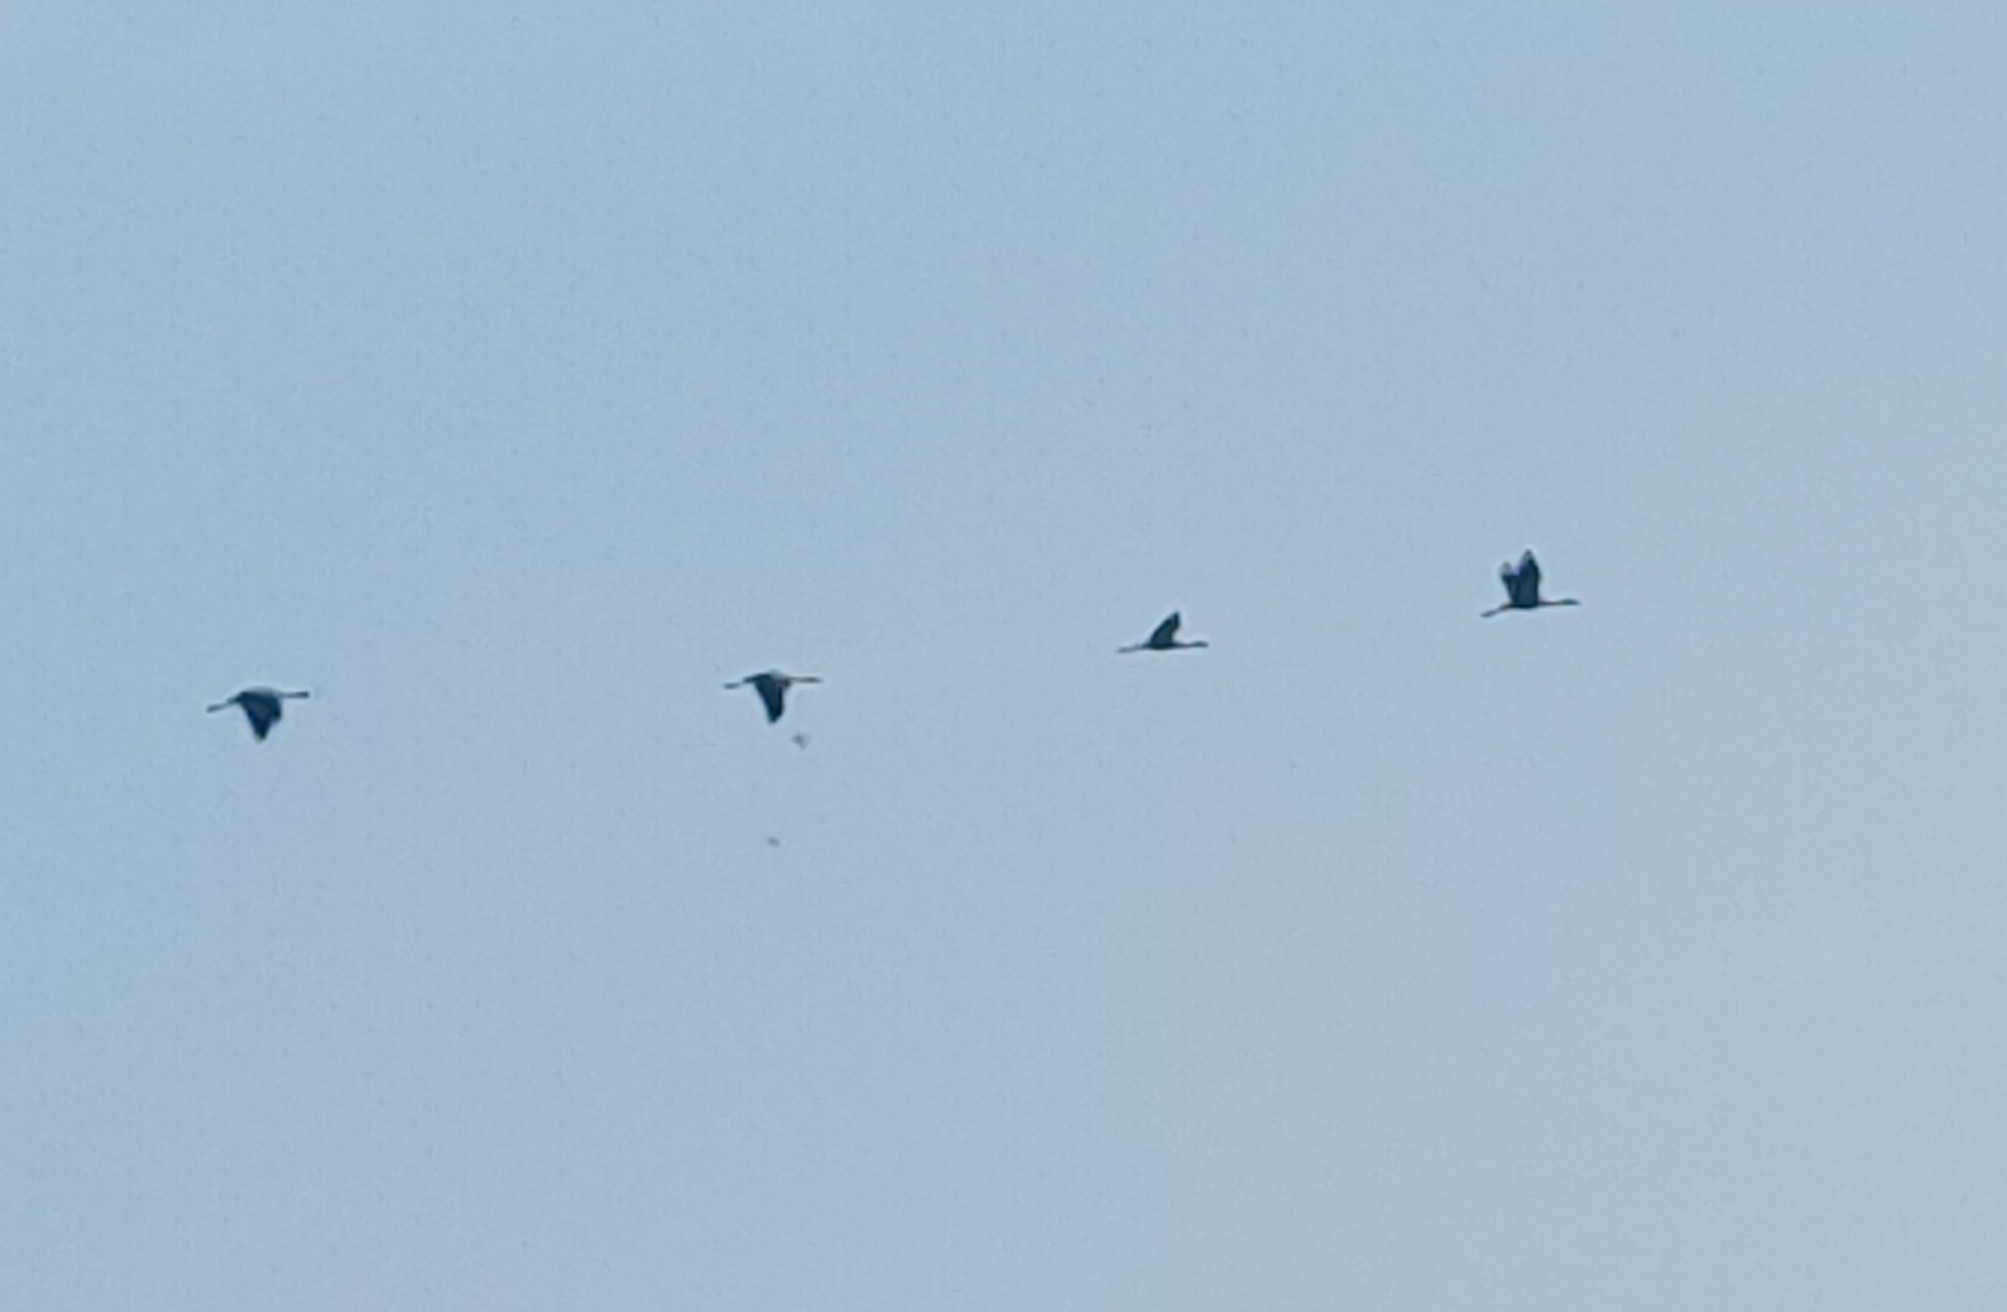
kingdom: Animalia
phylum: Chordata
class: Aves
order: Gruiformes
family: Gruidae
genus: Grus
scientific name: Grus grus
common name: Common crane
